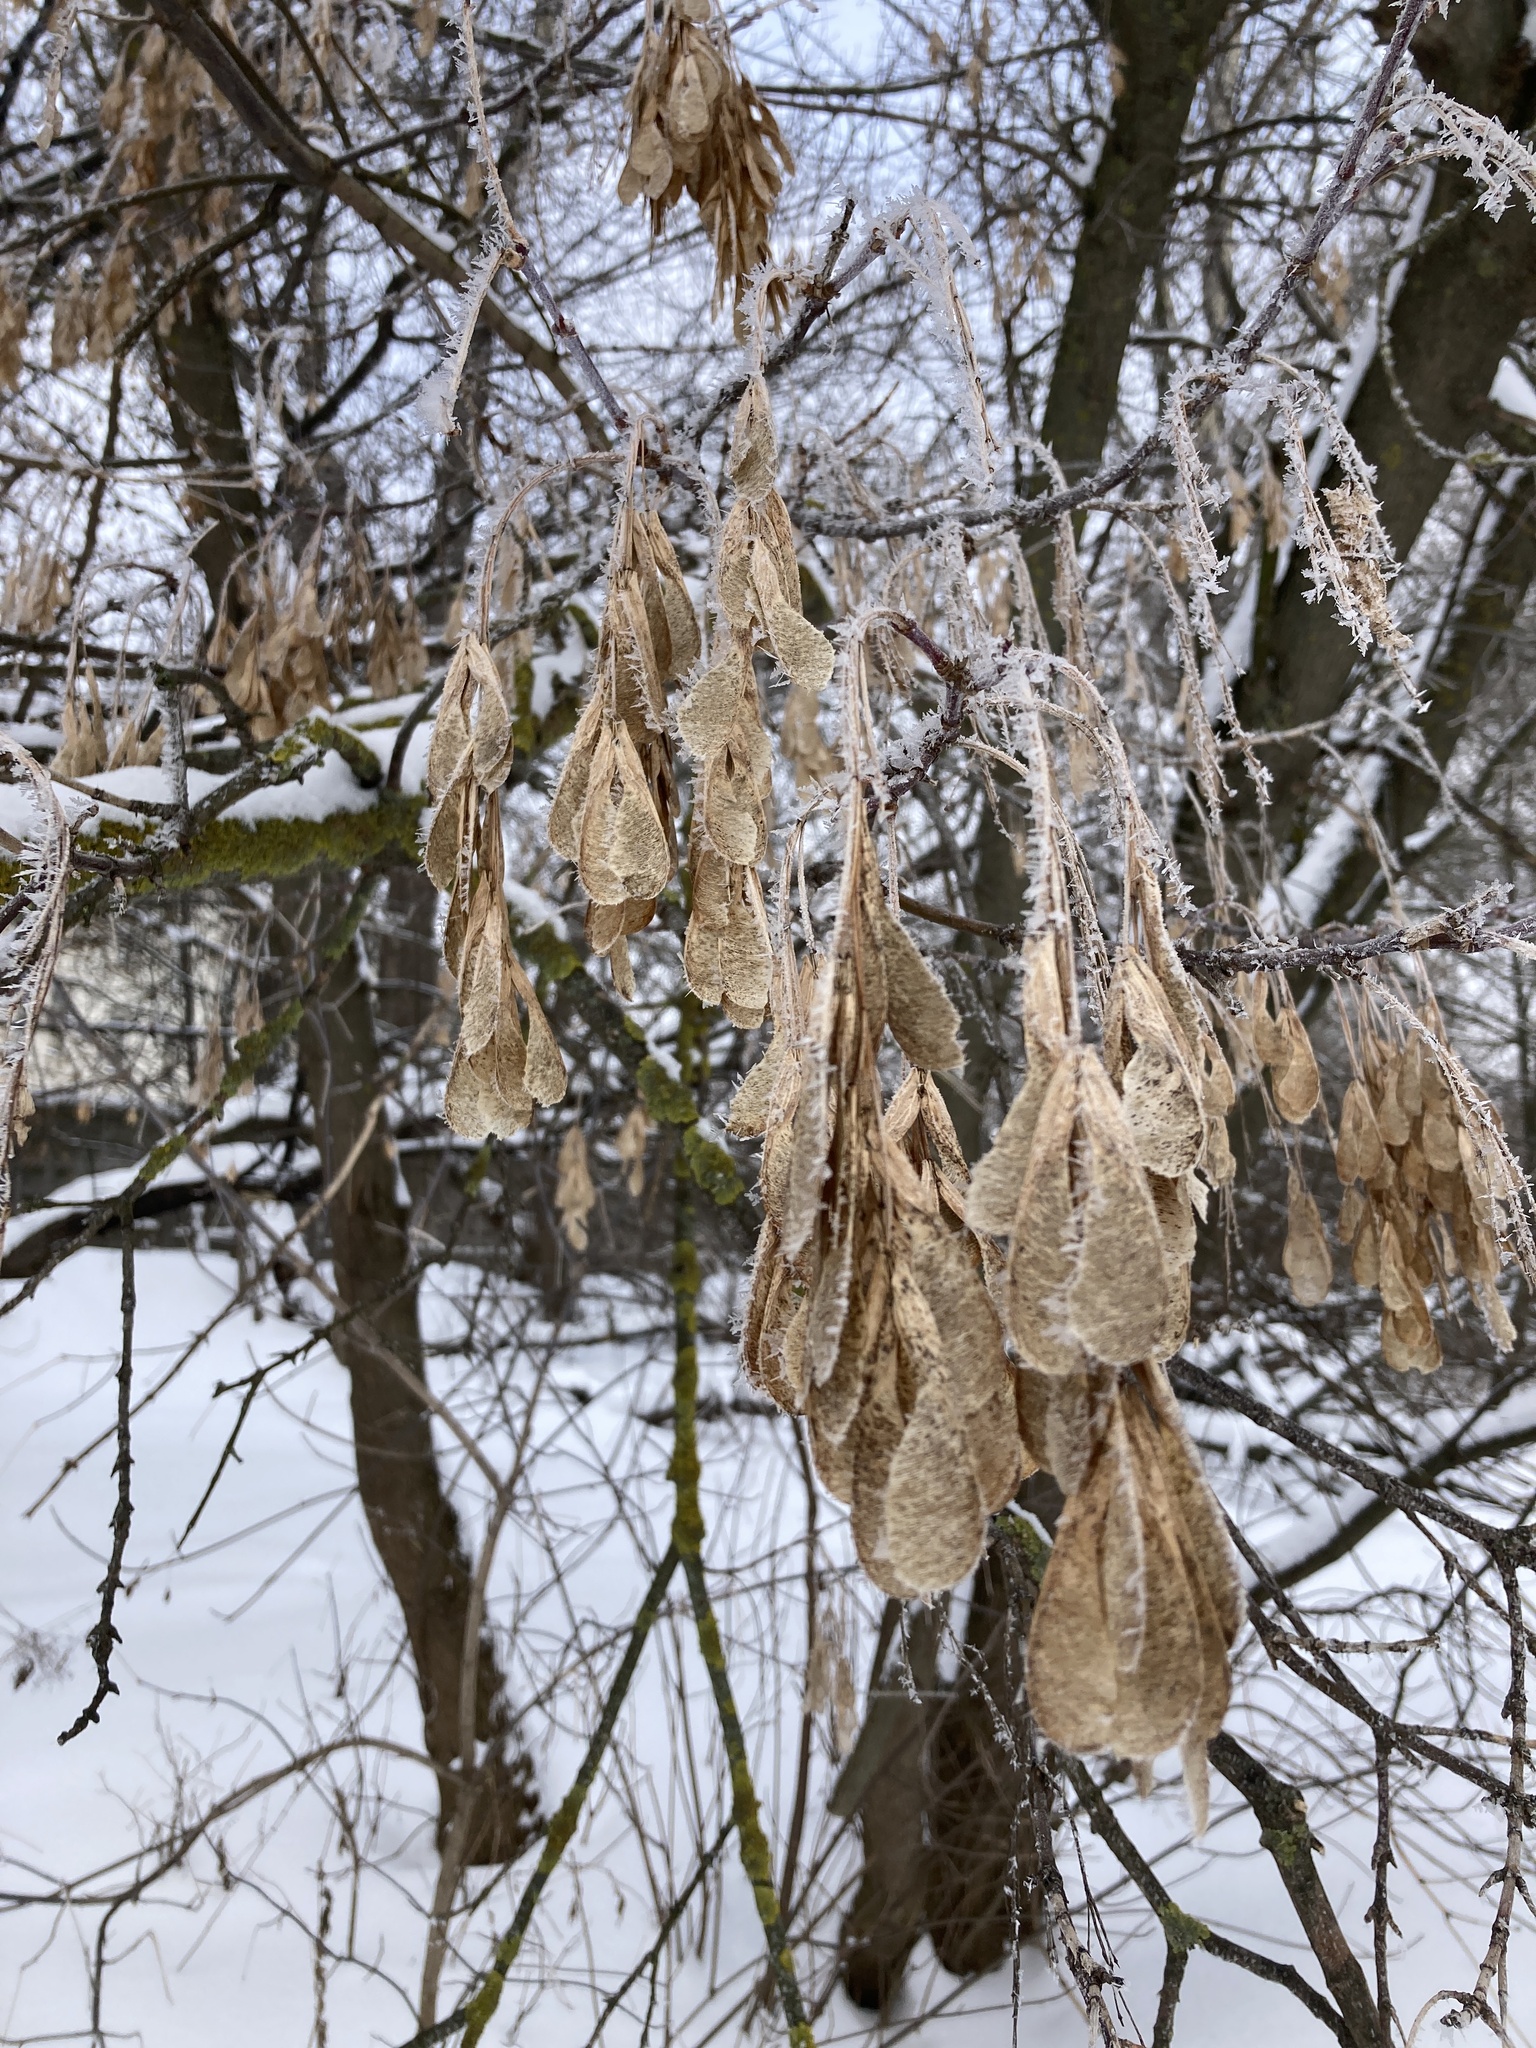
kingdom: Plantae
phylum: Tracheophyta
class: Magnoliopsida
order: Sapindales
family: Sapindaceae
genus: Acer
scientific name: Acer negundo
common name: Ashleaf maple
